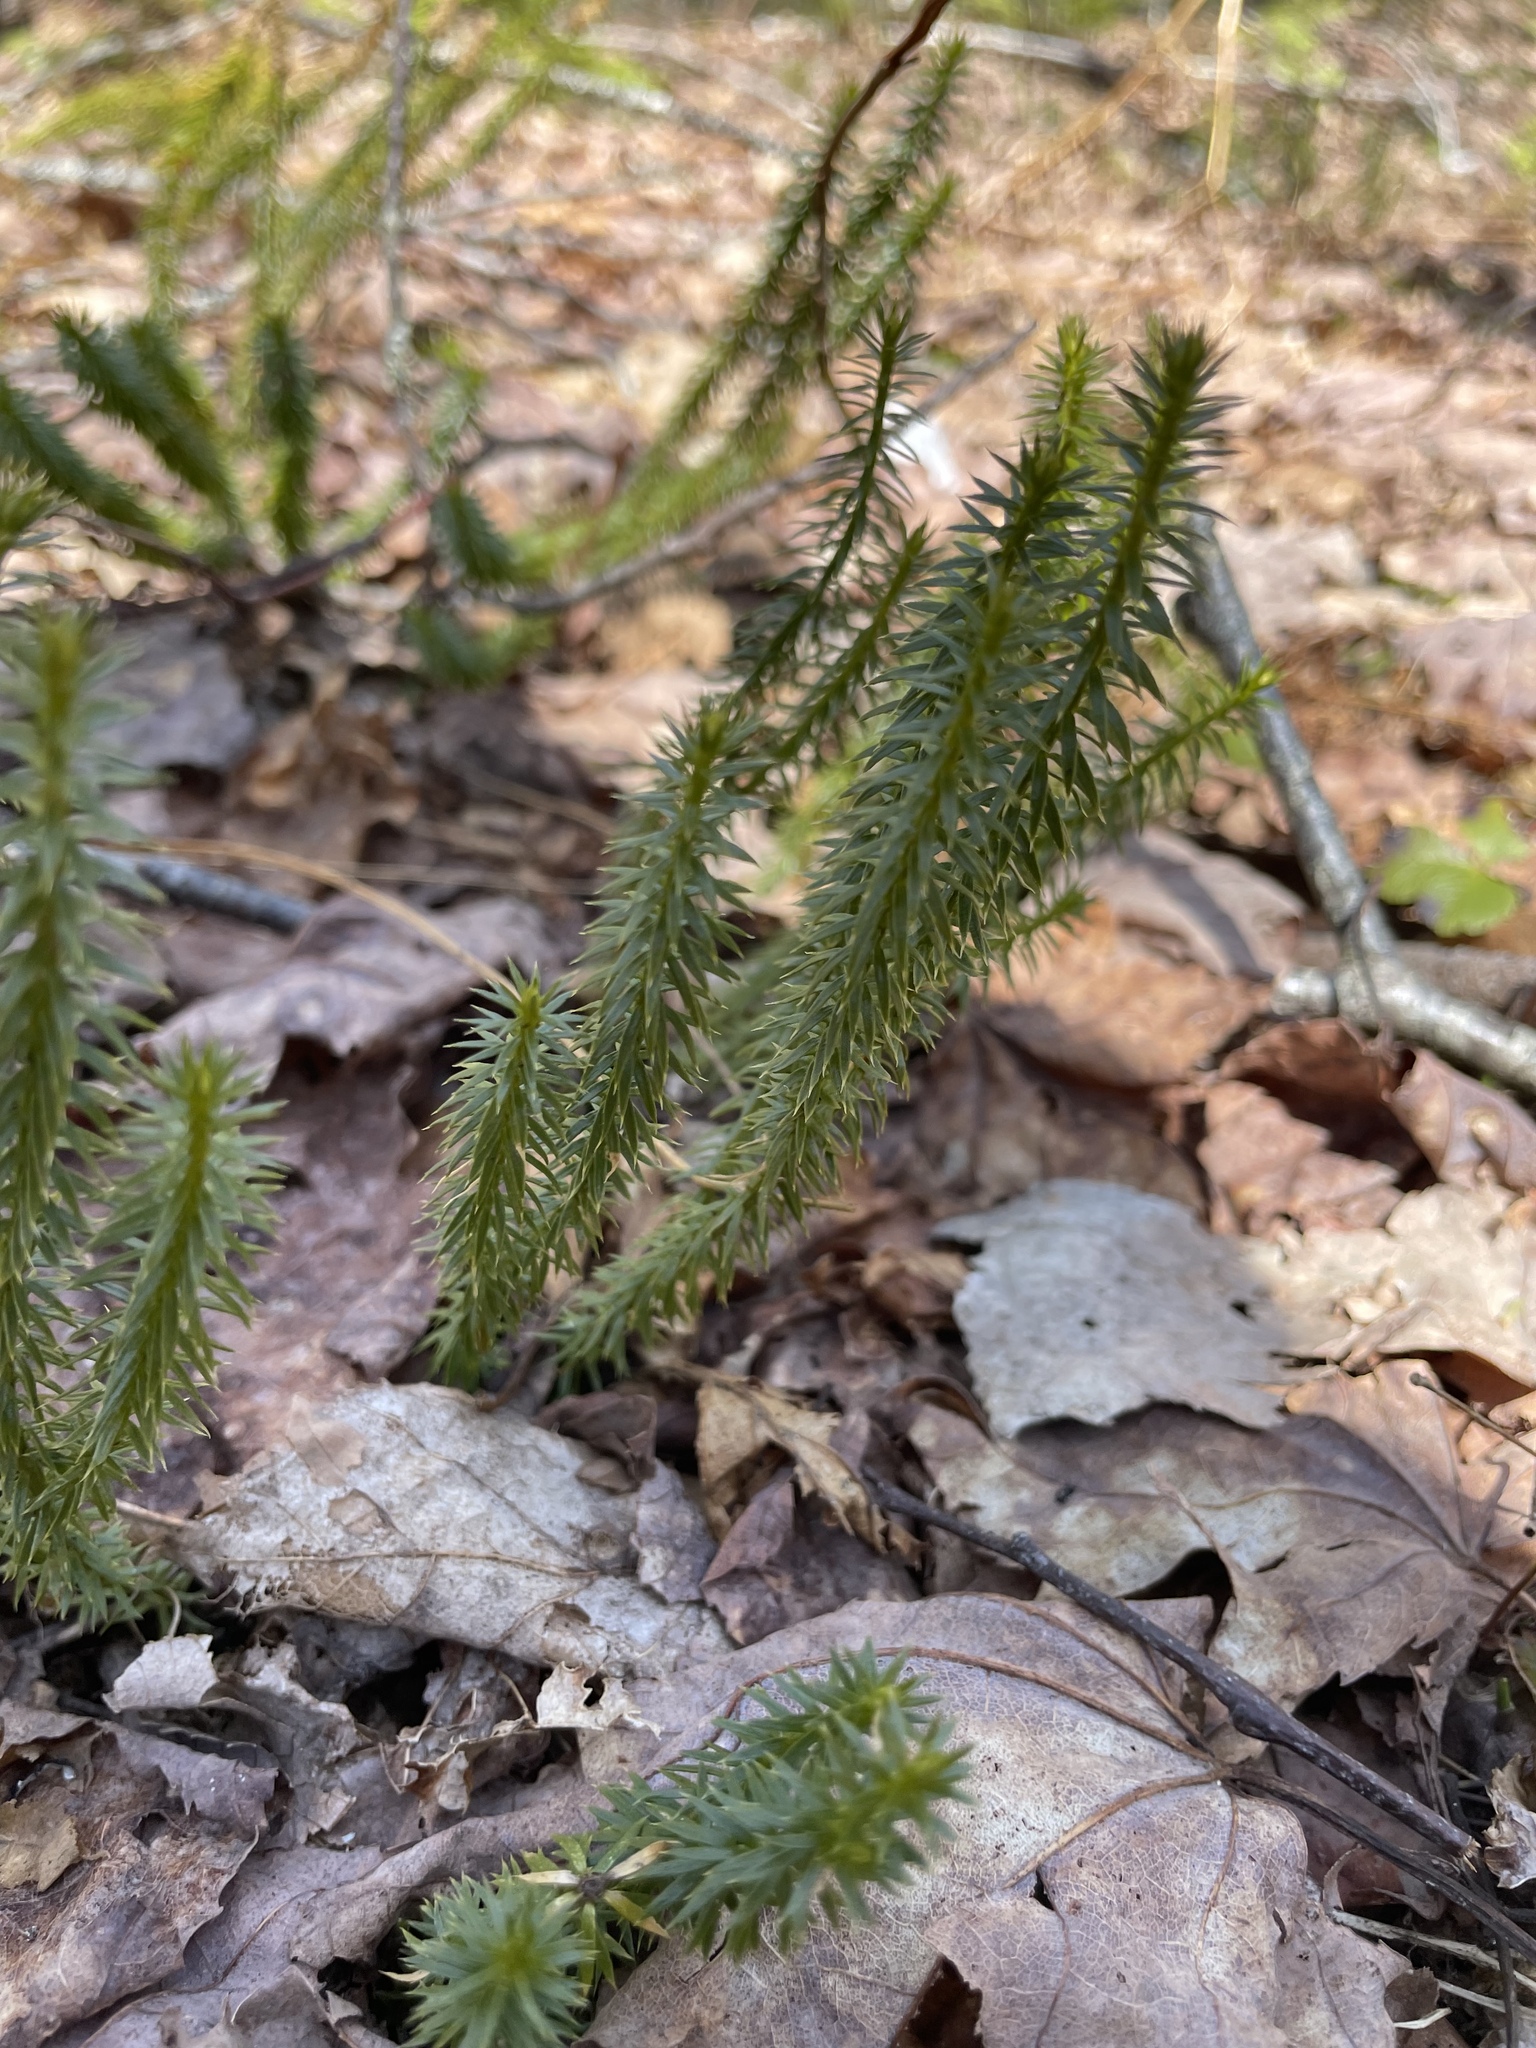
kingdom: Plantae
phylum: Tracheophyta
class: Lycopodiopsida
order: Lycopodiales
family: Lycopodiaceae
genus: Spinulum
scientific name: Spinulum annotinum
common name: Interrupted club-moss
